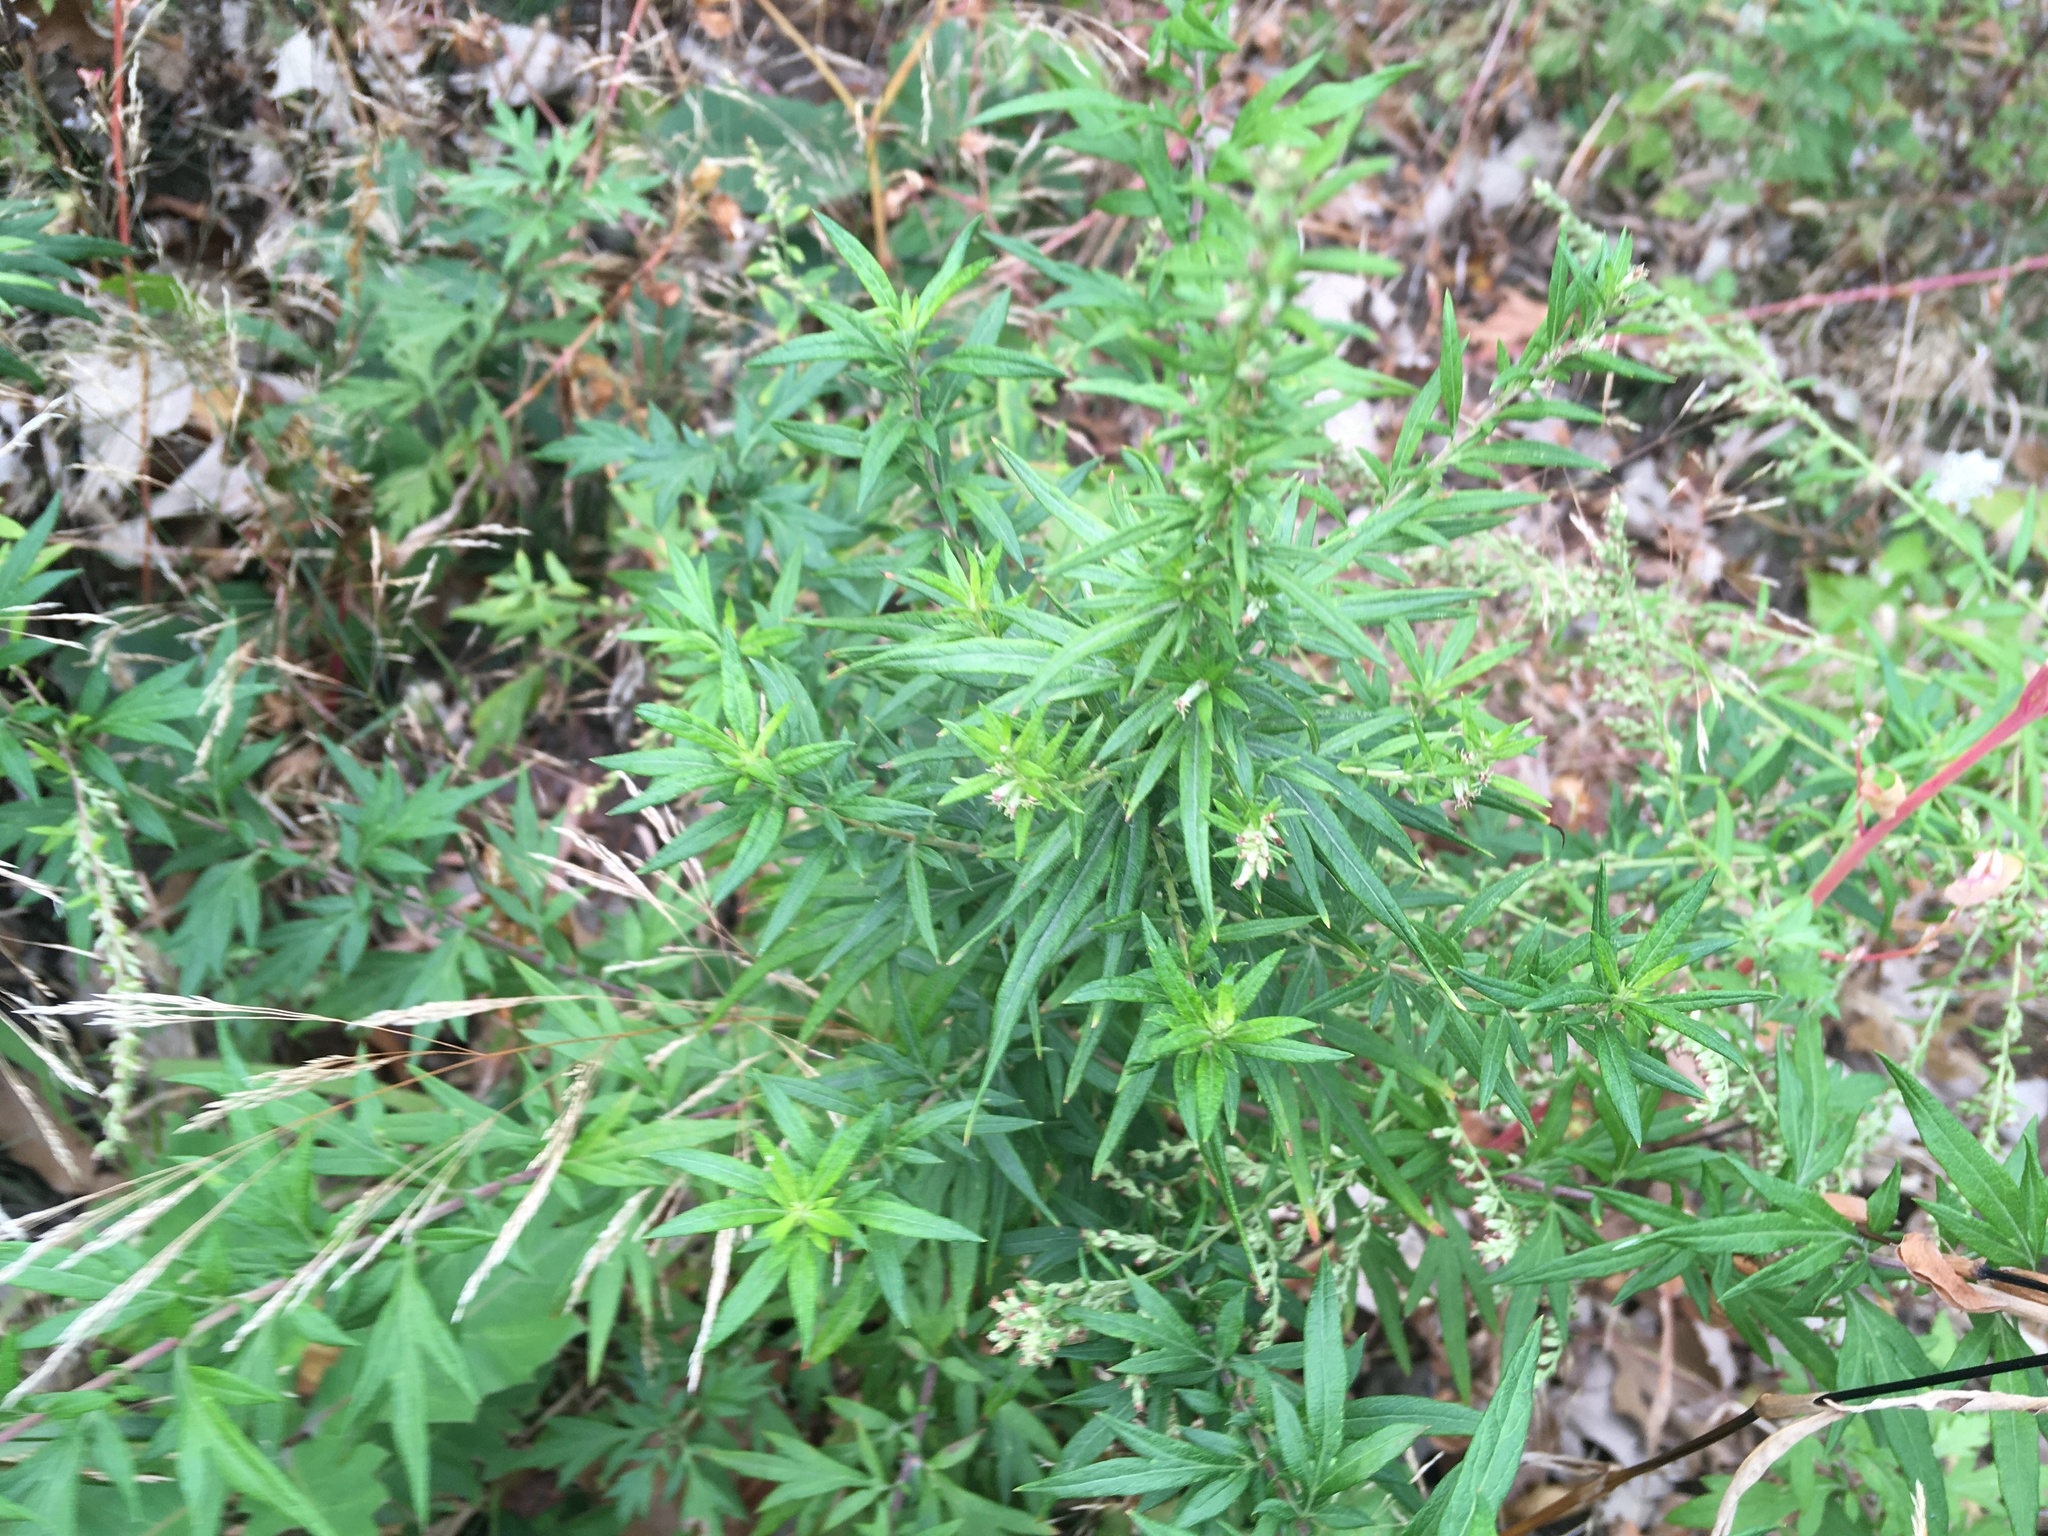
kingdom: Plantae
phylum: Tracheophyta
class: Magnoliopsida
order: Asterales
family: Asteraceae
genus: Artemisia
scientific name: Artemisia vulgaris
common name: Mugwort
